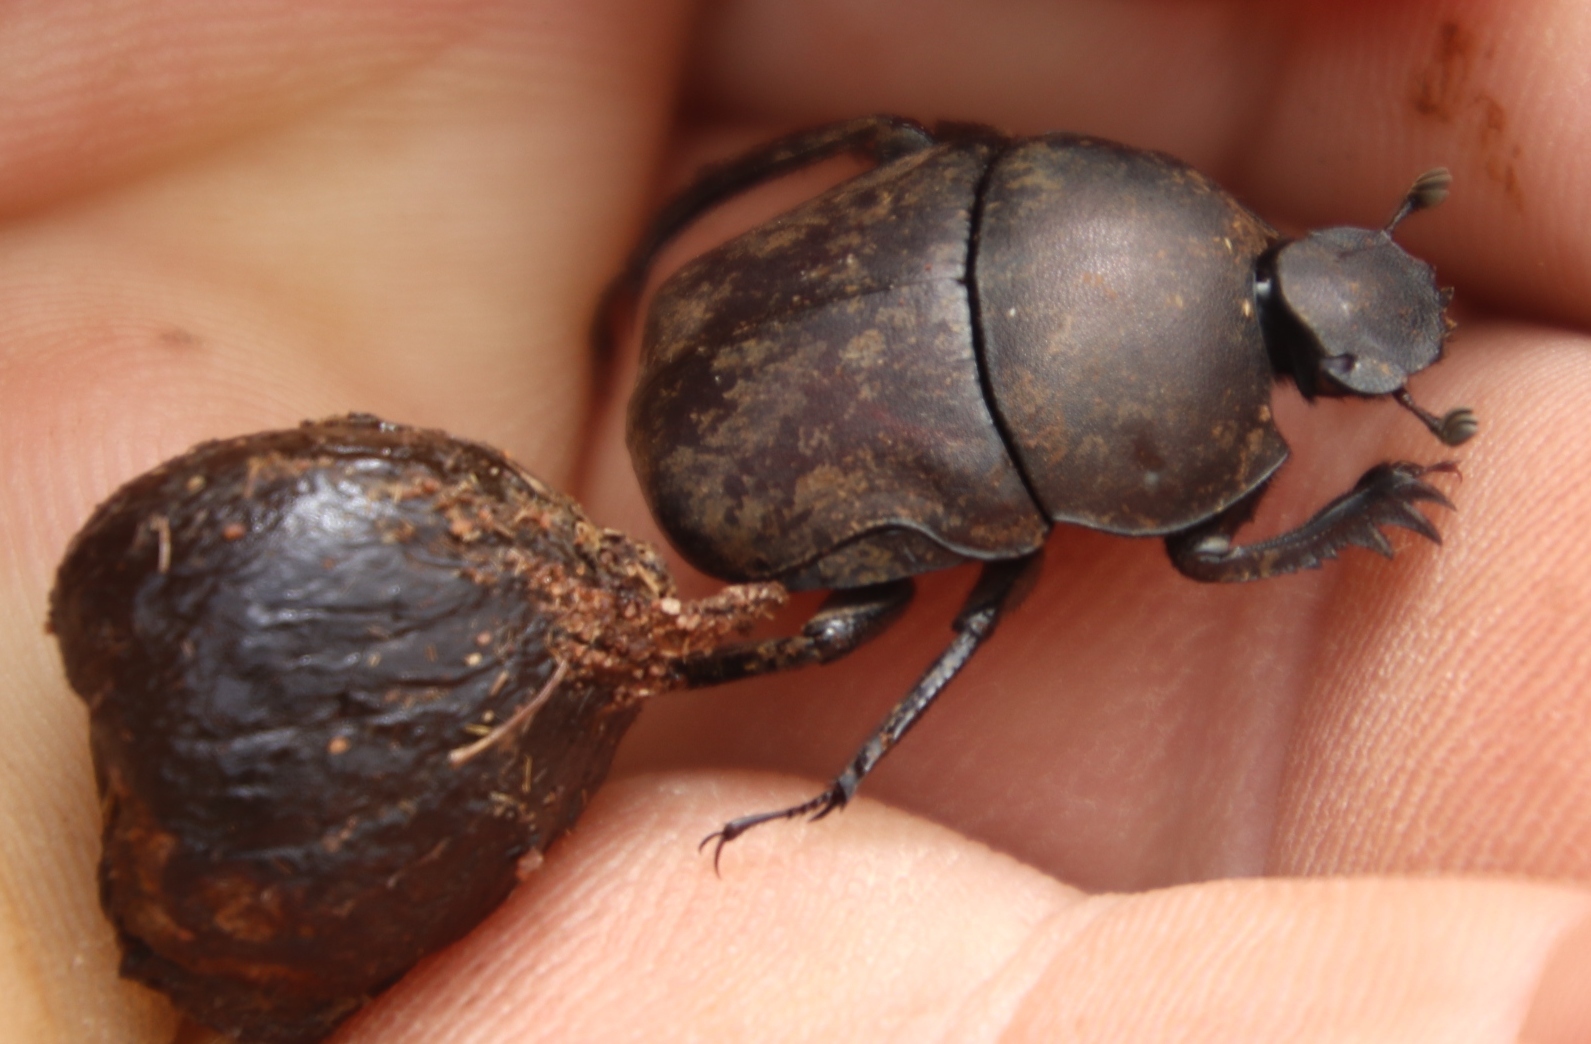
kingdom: Animalia
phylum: Arthropoda
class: Insecta
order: Coleoptera
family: Scarabaeidae
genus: Garreta
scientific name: Garreta unicolor
